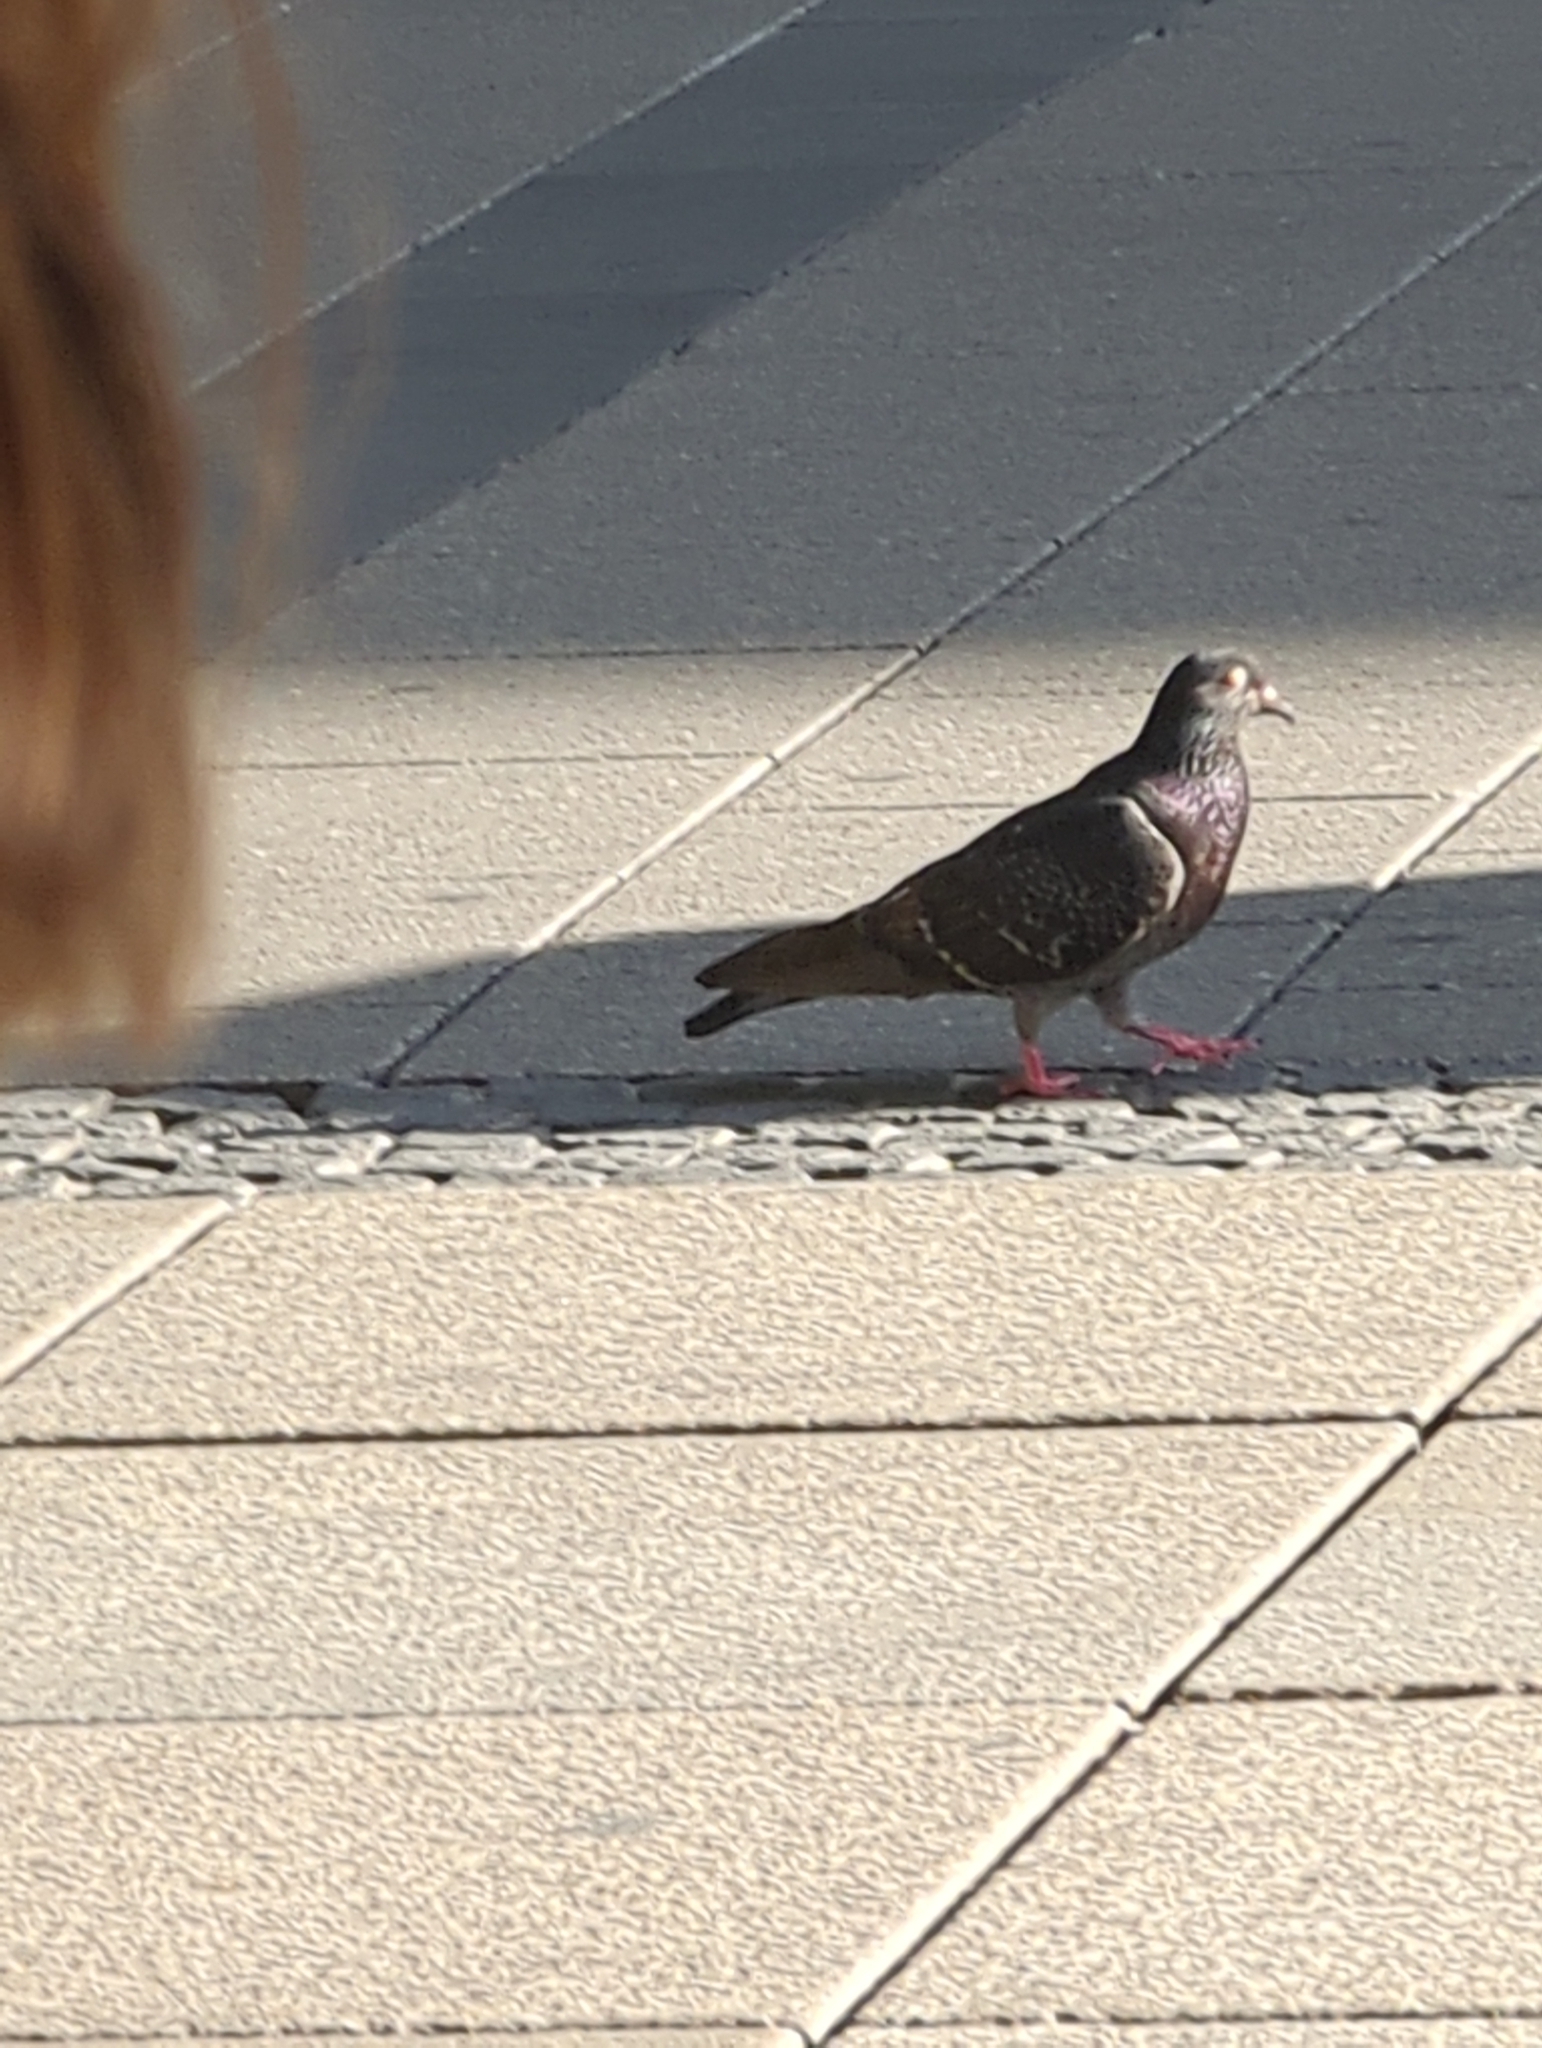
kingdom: Animalia
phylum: Chordata
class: Aves
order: Columbiformes
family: Columbidae
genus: Columba
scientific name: Columba livia
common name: Rock pigeon
